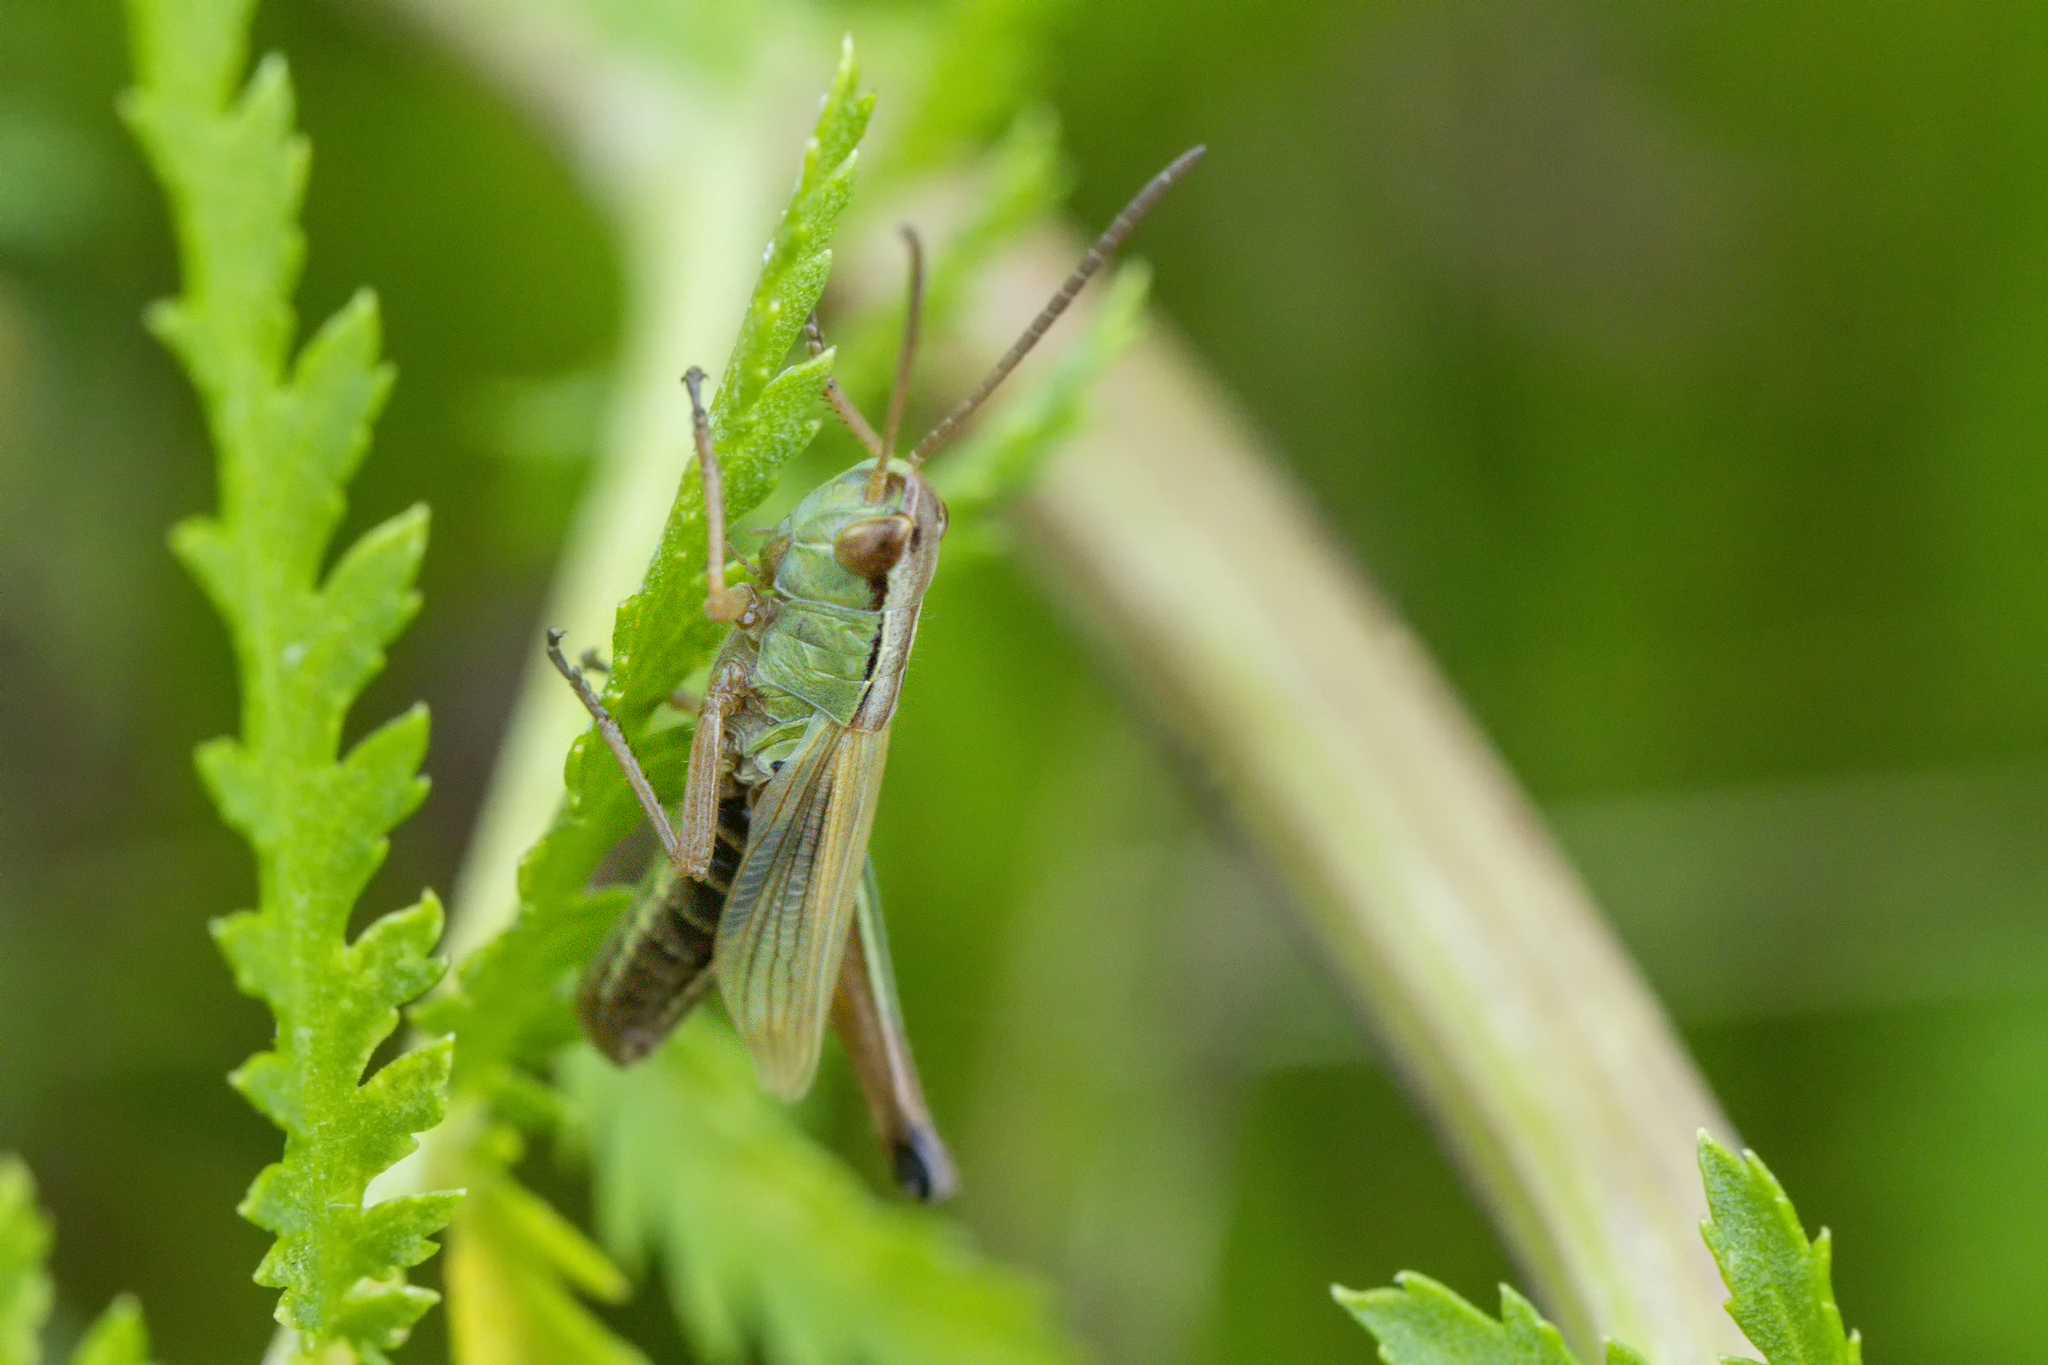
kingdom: Animalia
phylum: Arthropoda
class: Insecta
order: Orthoptera
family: Acrididae
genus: Pseudochorthippus
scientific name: Pseudochorthippus parallelus
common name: Meadow grasshopper
